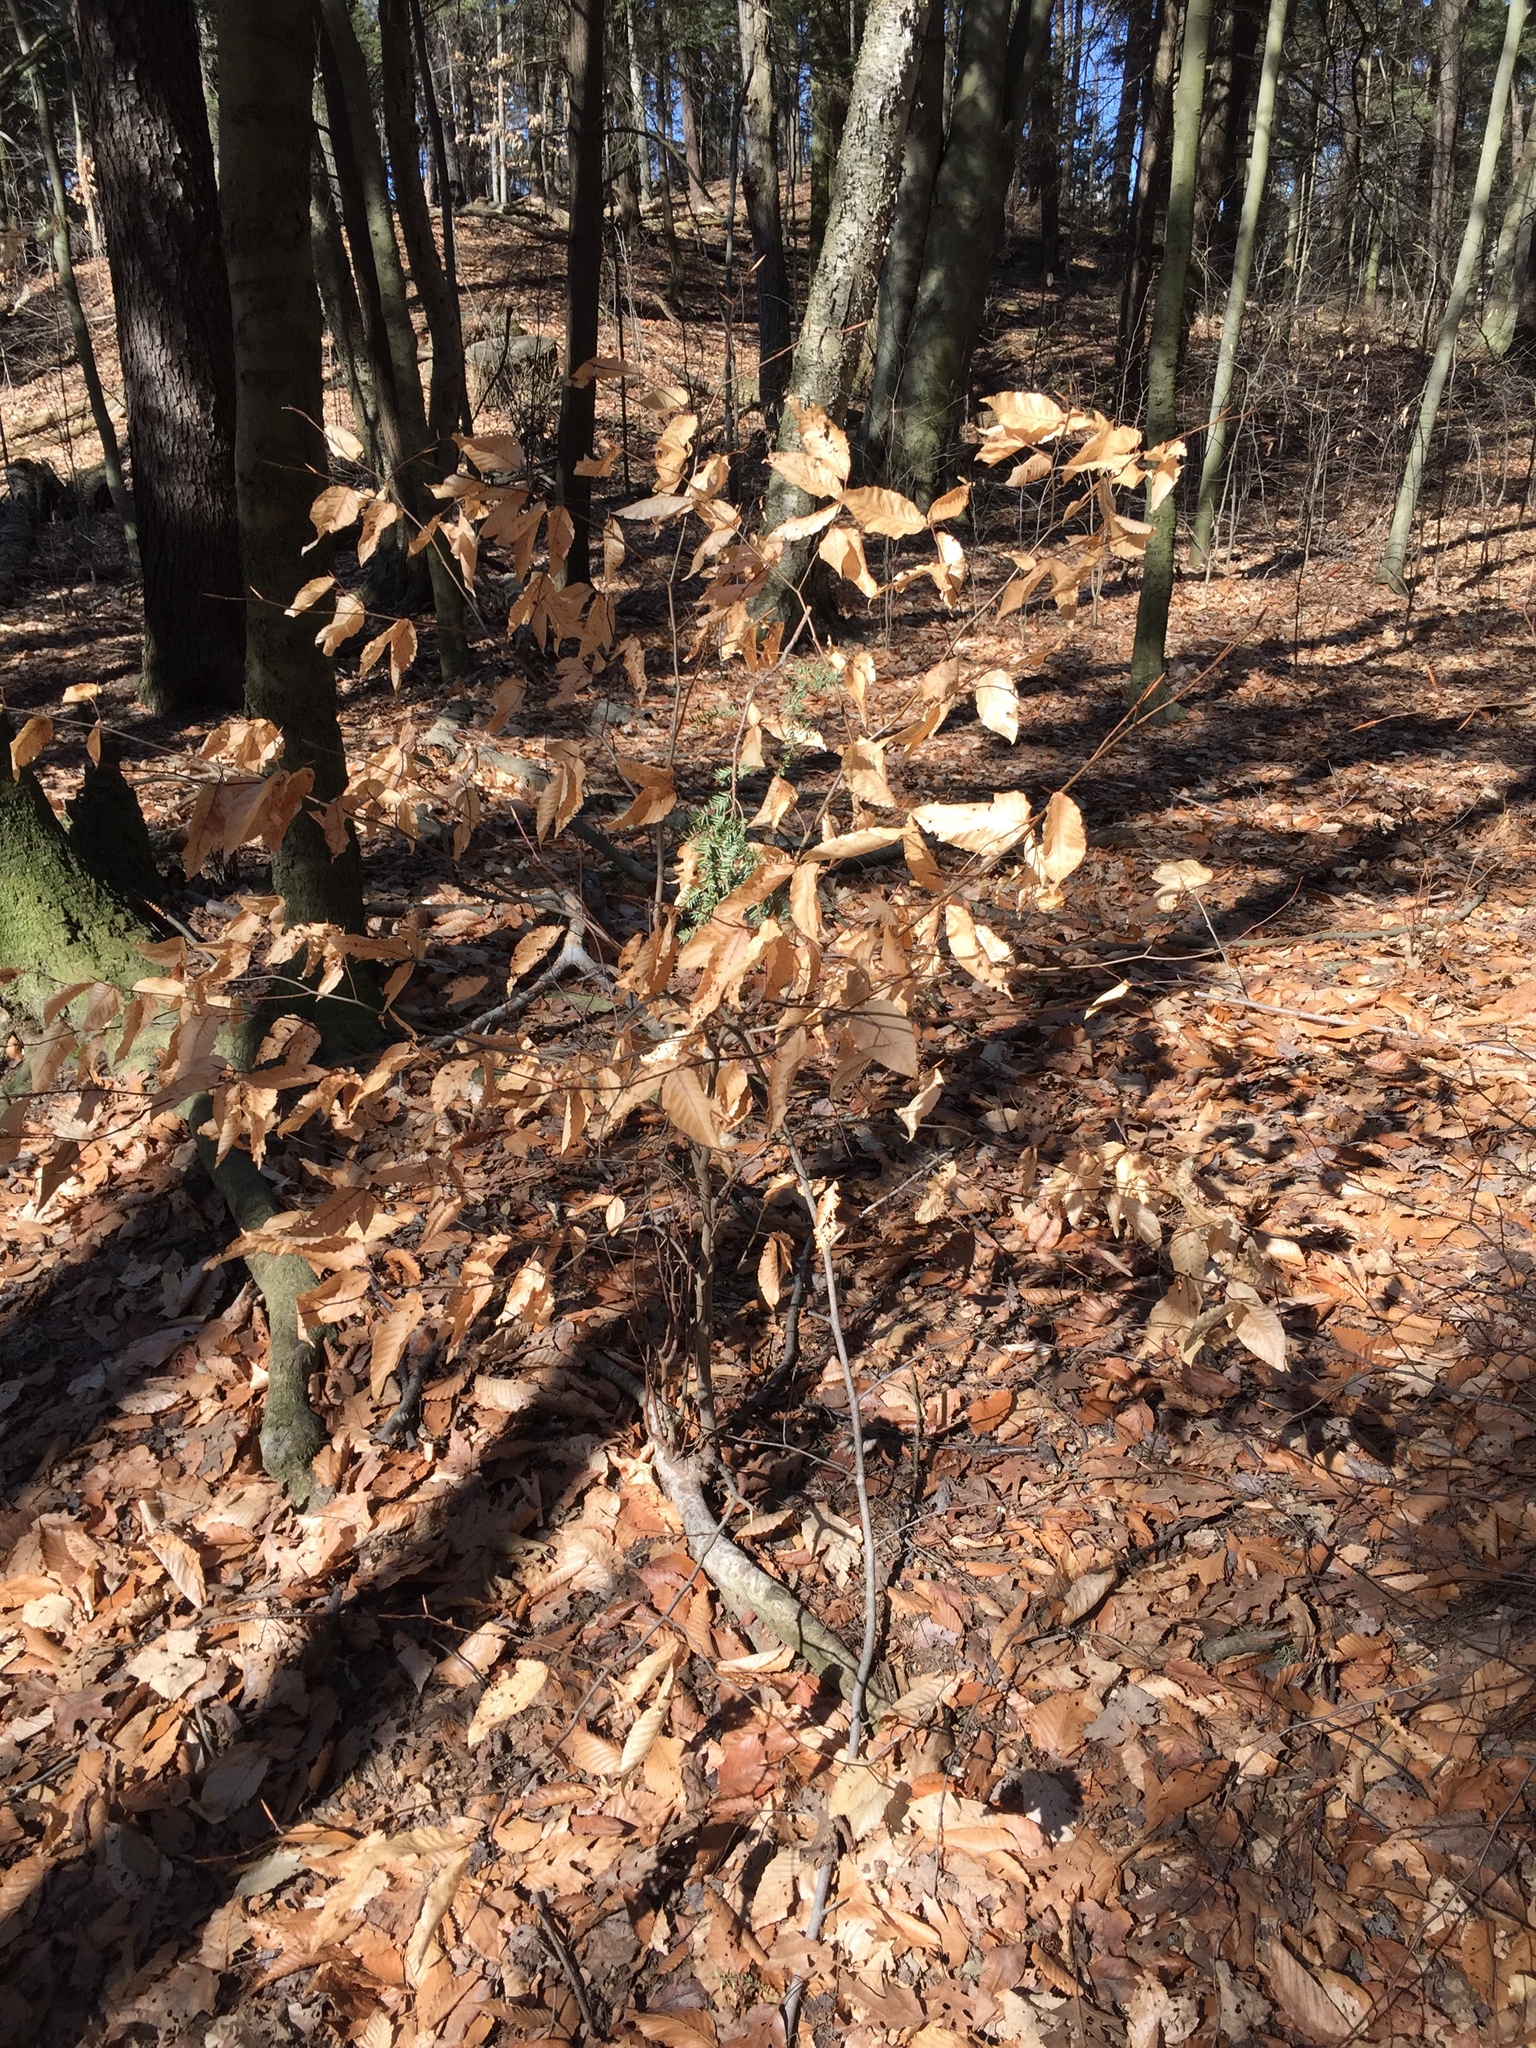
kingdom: Plantae
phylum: Tracheophyta
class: Magnoliopsida
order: Fagales
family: Fagaceae
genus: Fagus
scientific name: Fagus grandifolia
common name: American beech
